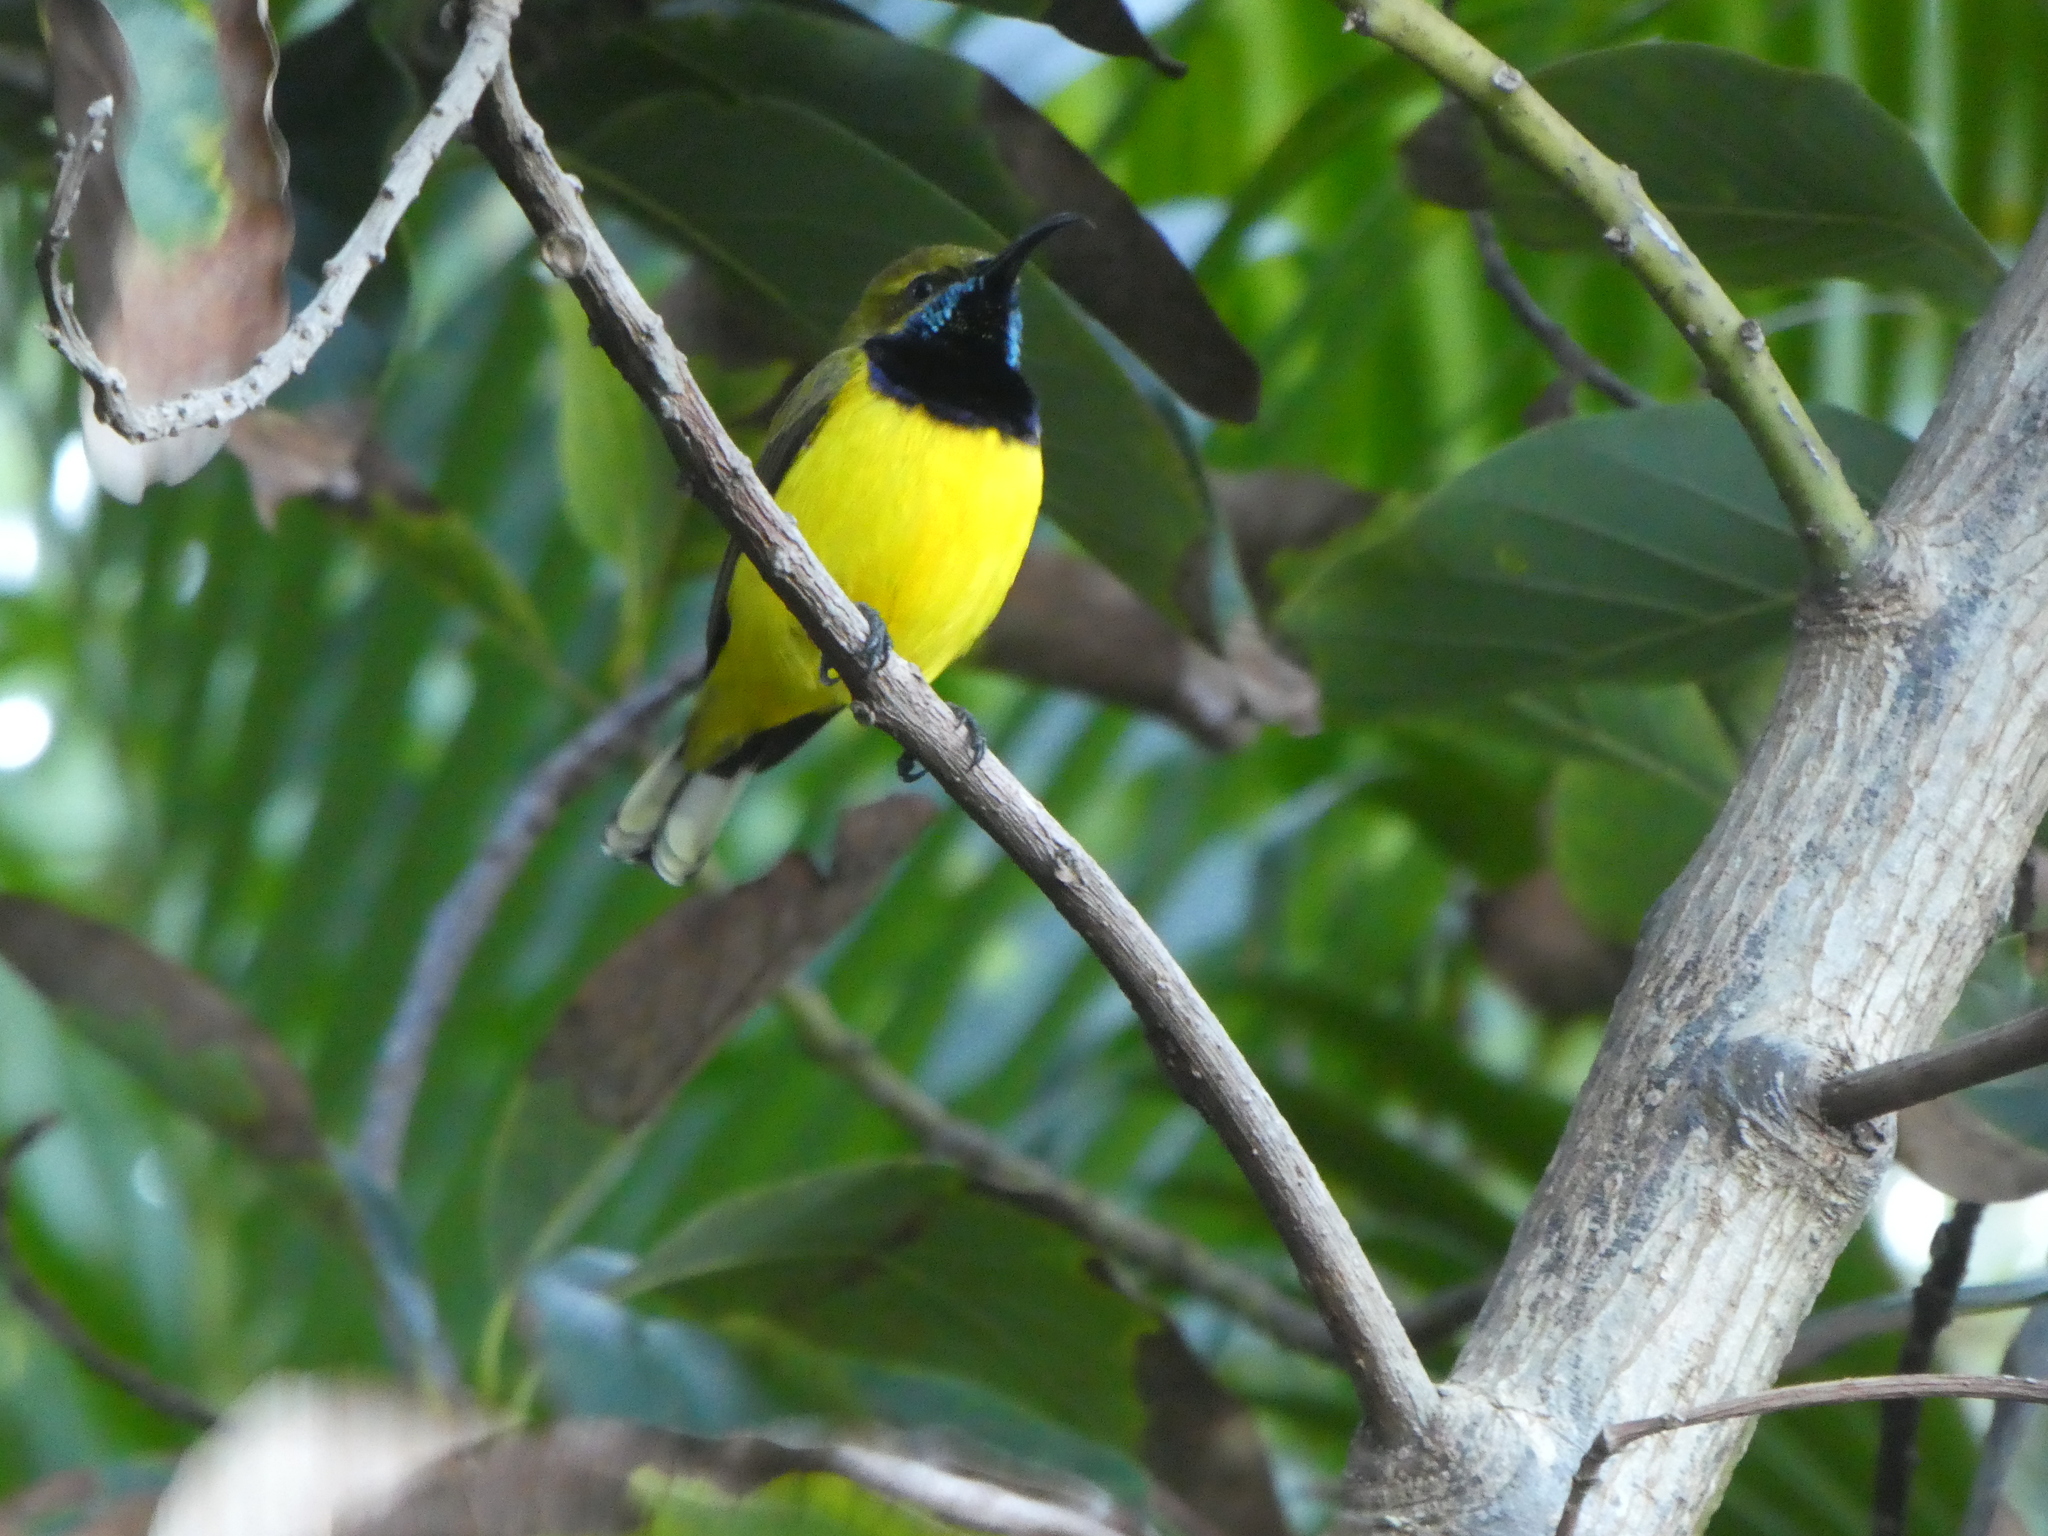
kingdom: Animalia
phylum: Chordata
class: Aves
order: Passeriformes
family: Nectariniidae
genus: Cinnyris
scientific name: Cinnyris
